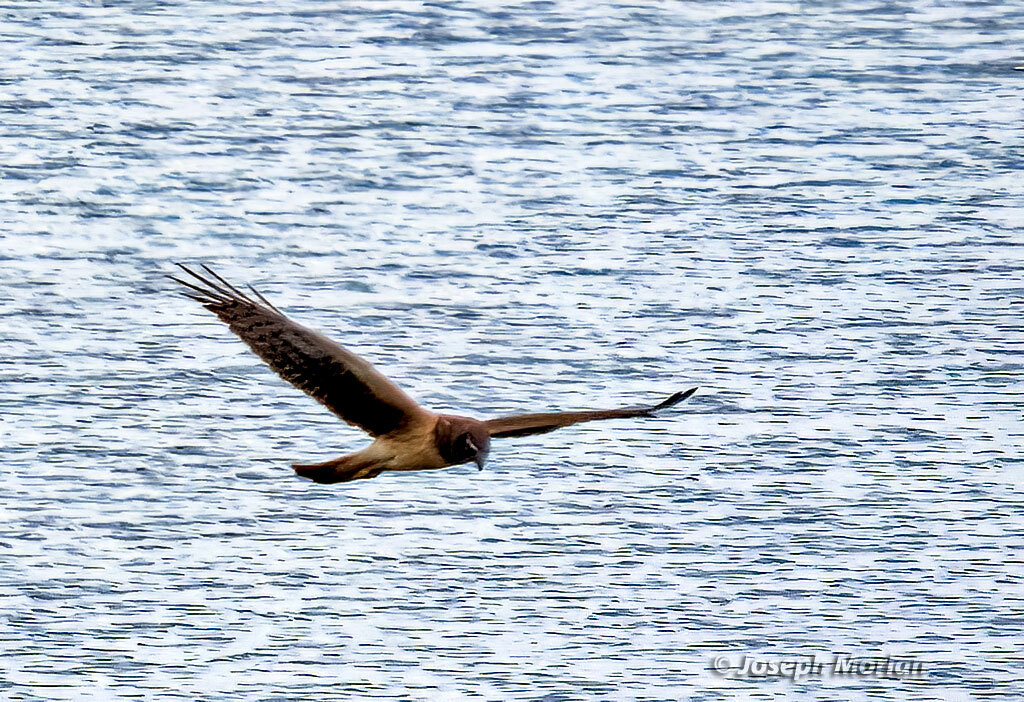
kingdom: Animalia
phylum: Chordata
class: Aves
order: Accipitriformes
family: Accipitridae
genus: Circus
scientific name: Circus cyaneus
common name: Hen harrier
